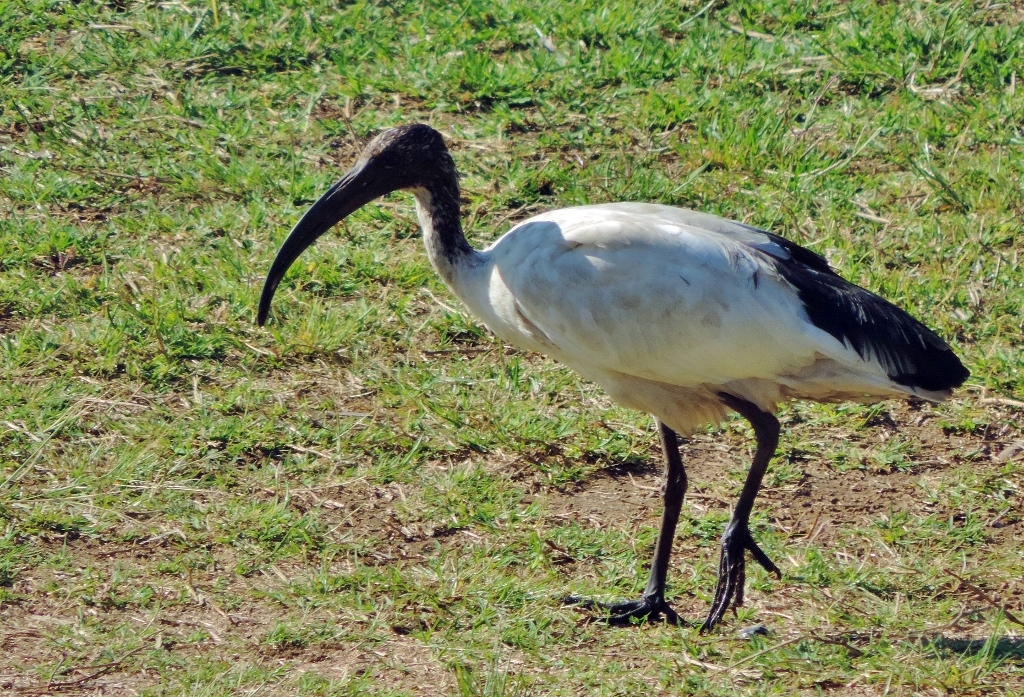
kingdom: Animalia
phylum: Chordata
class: Aves
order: Pelecaniformes
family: Threskiornithidae
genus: Threskiornis
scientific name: Threskiornis aethiopicus
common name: Sacred ibis
